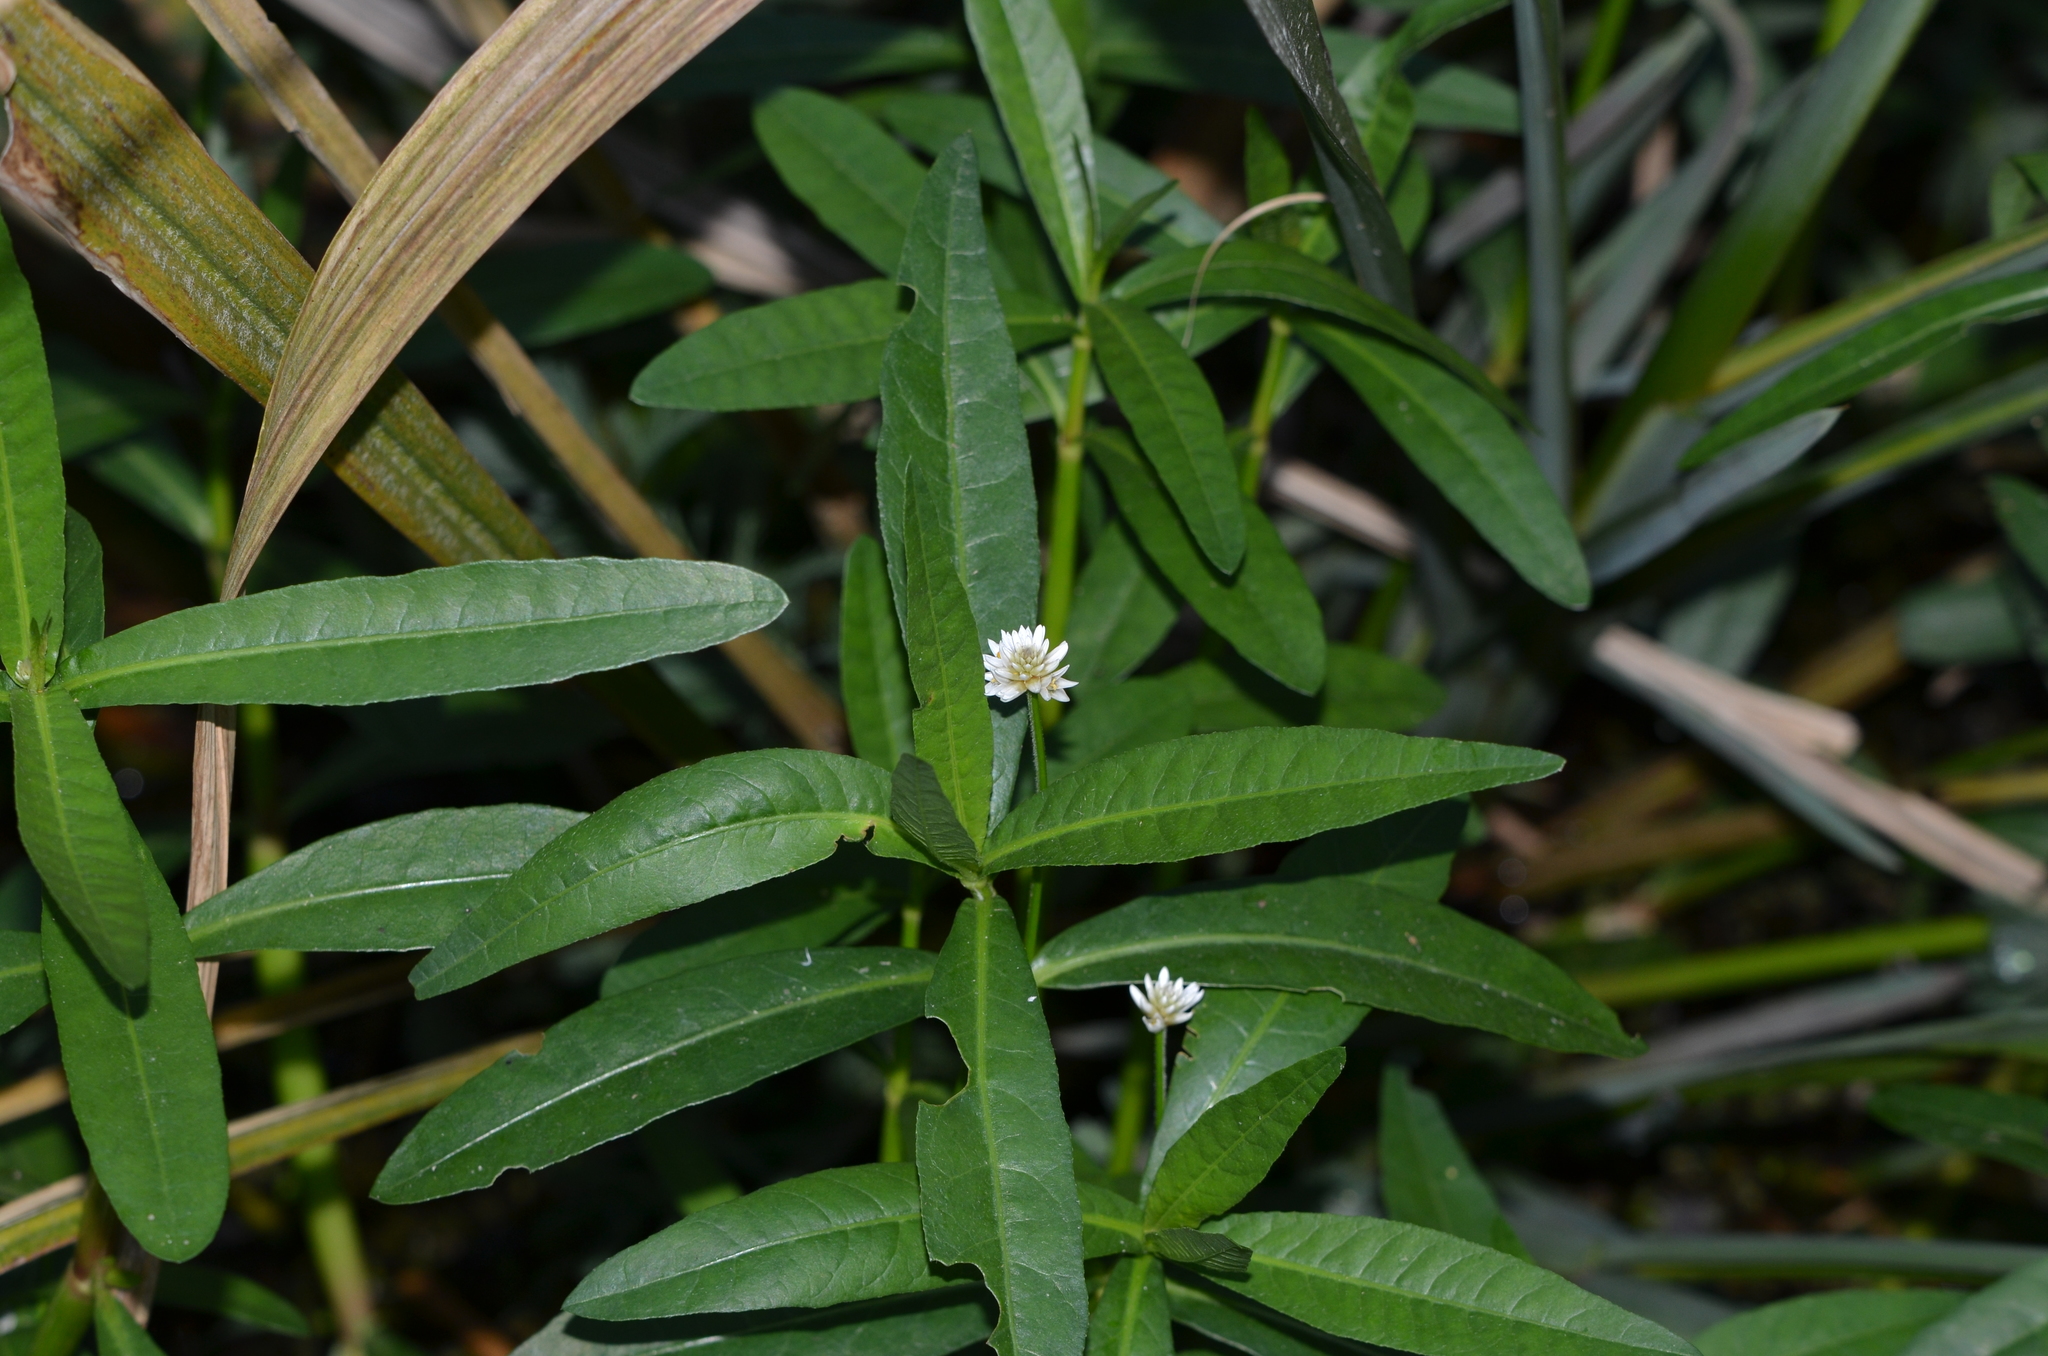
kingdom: Plantae
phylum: Tracheophyta
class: Magnoliopsida
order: Caryophyllales
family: Amaranthaceae
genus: Alternanthera
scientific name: Alternanthera philoxeroides
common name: Alligatorweed
